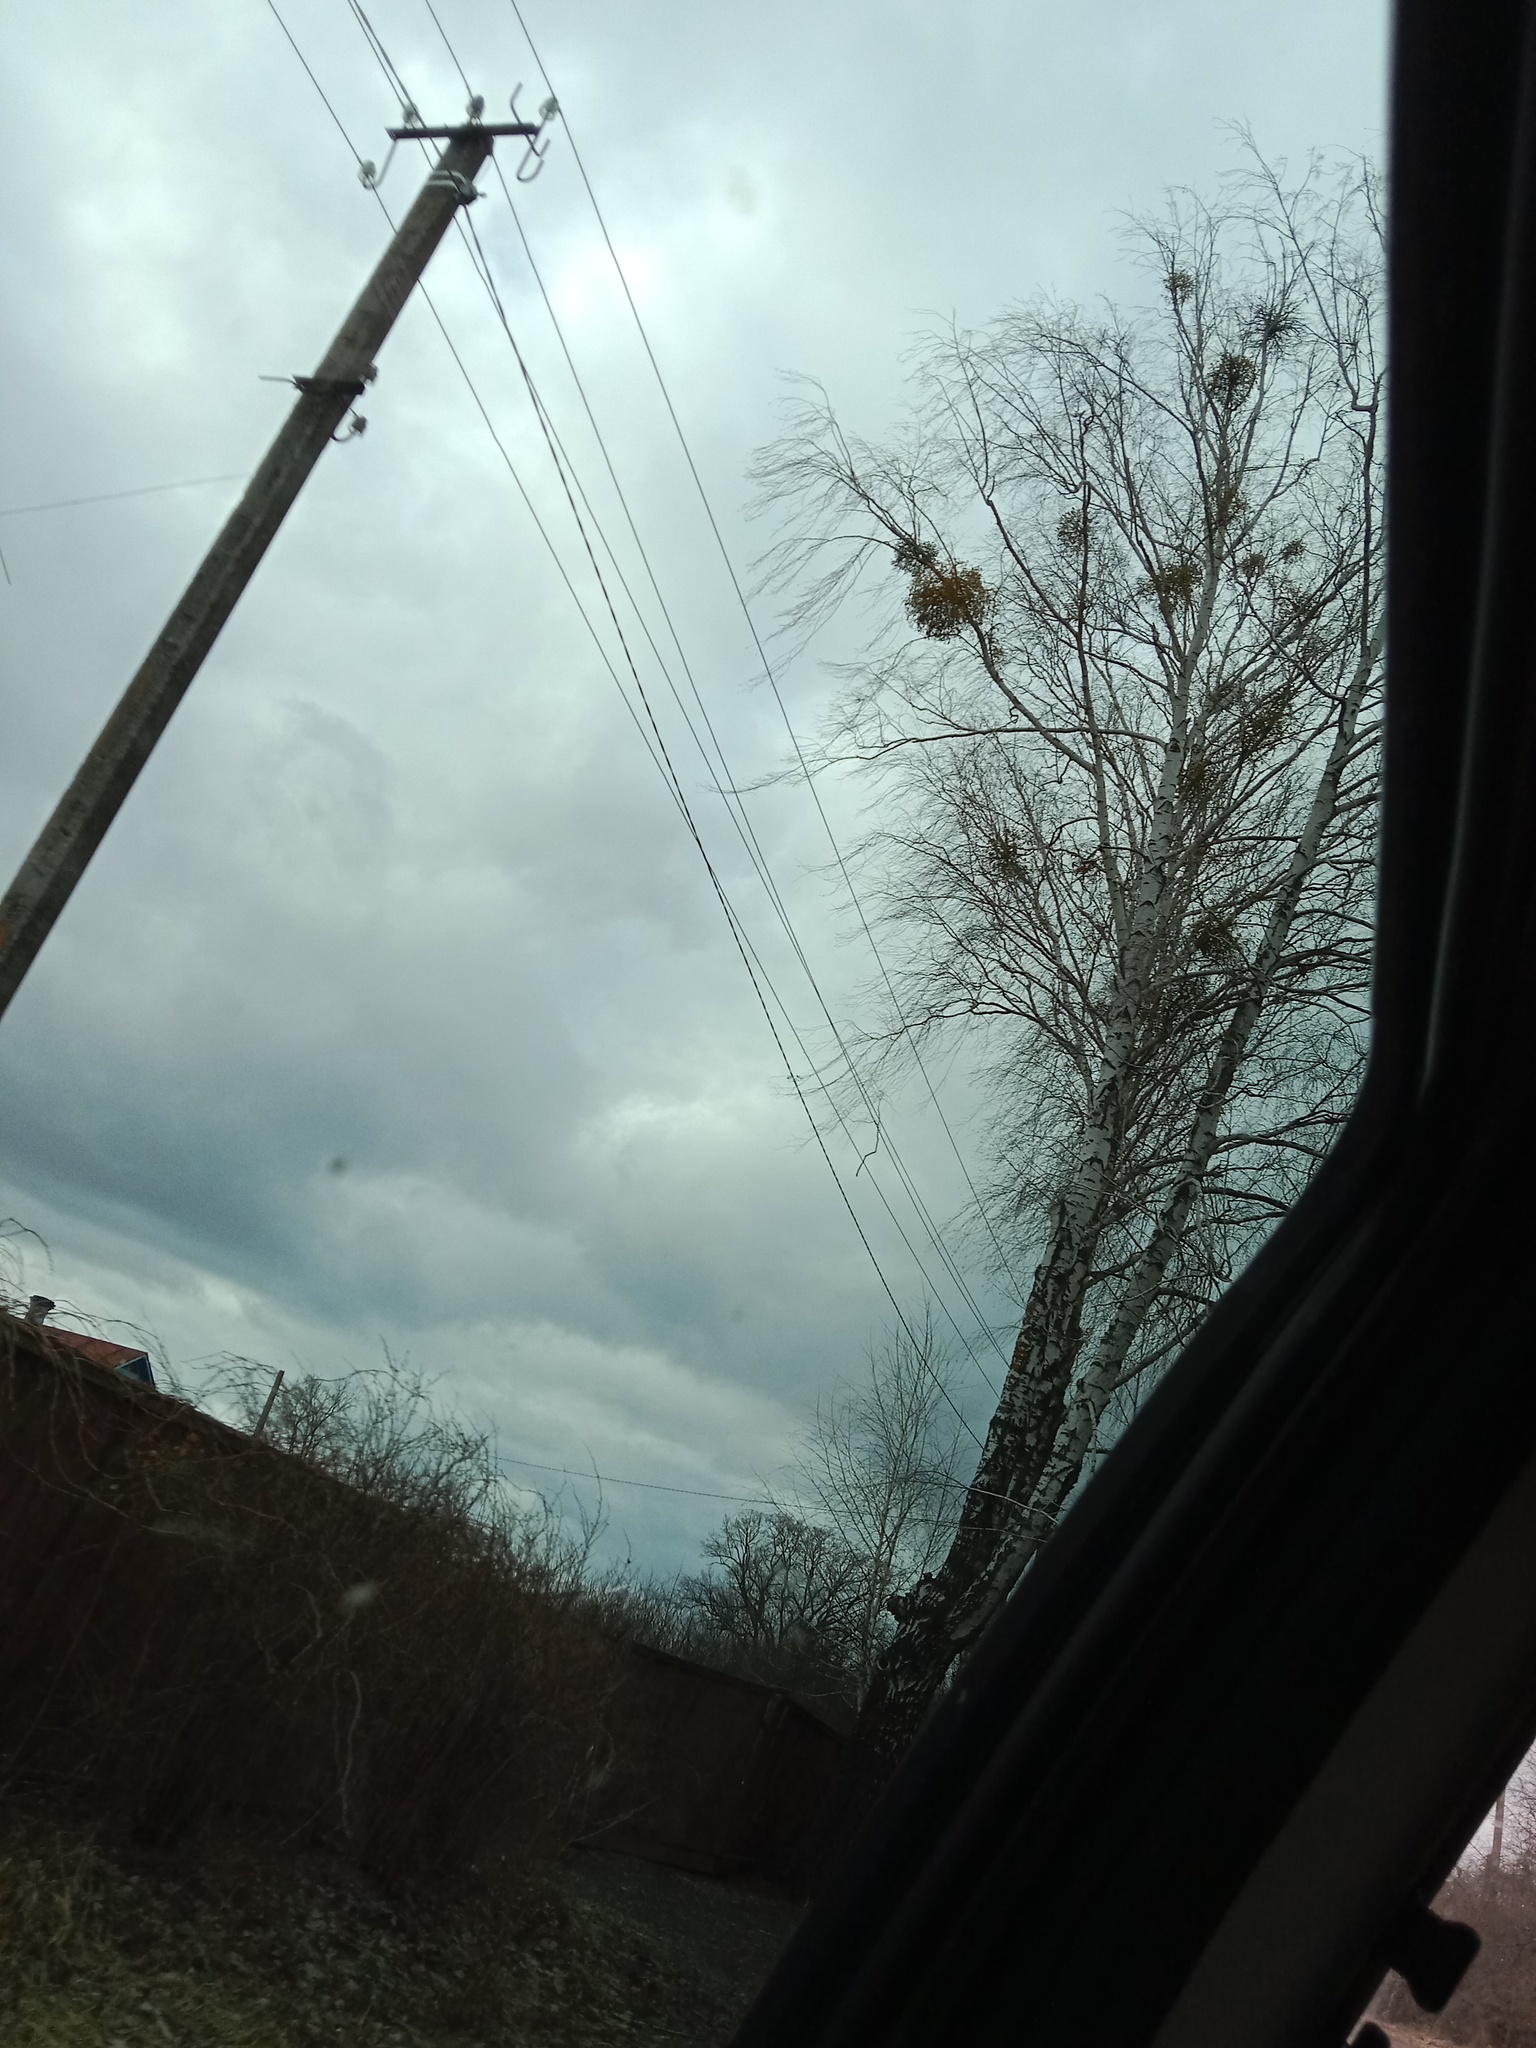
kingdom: Plantae
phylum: Tracheophyta
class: Magnoliopsida
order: Santalales
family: Viscaceae
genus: Viscum
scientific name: Viscum album
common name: Mistletoe
